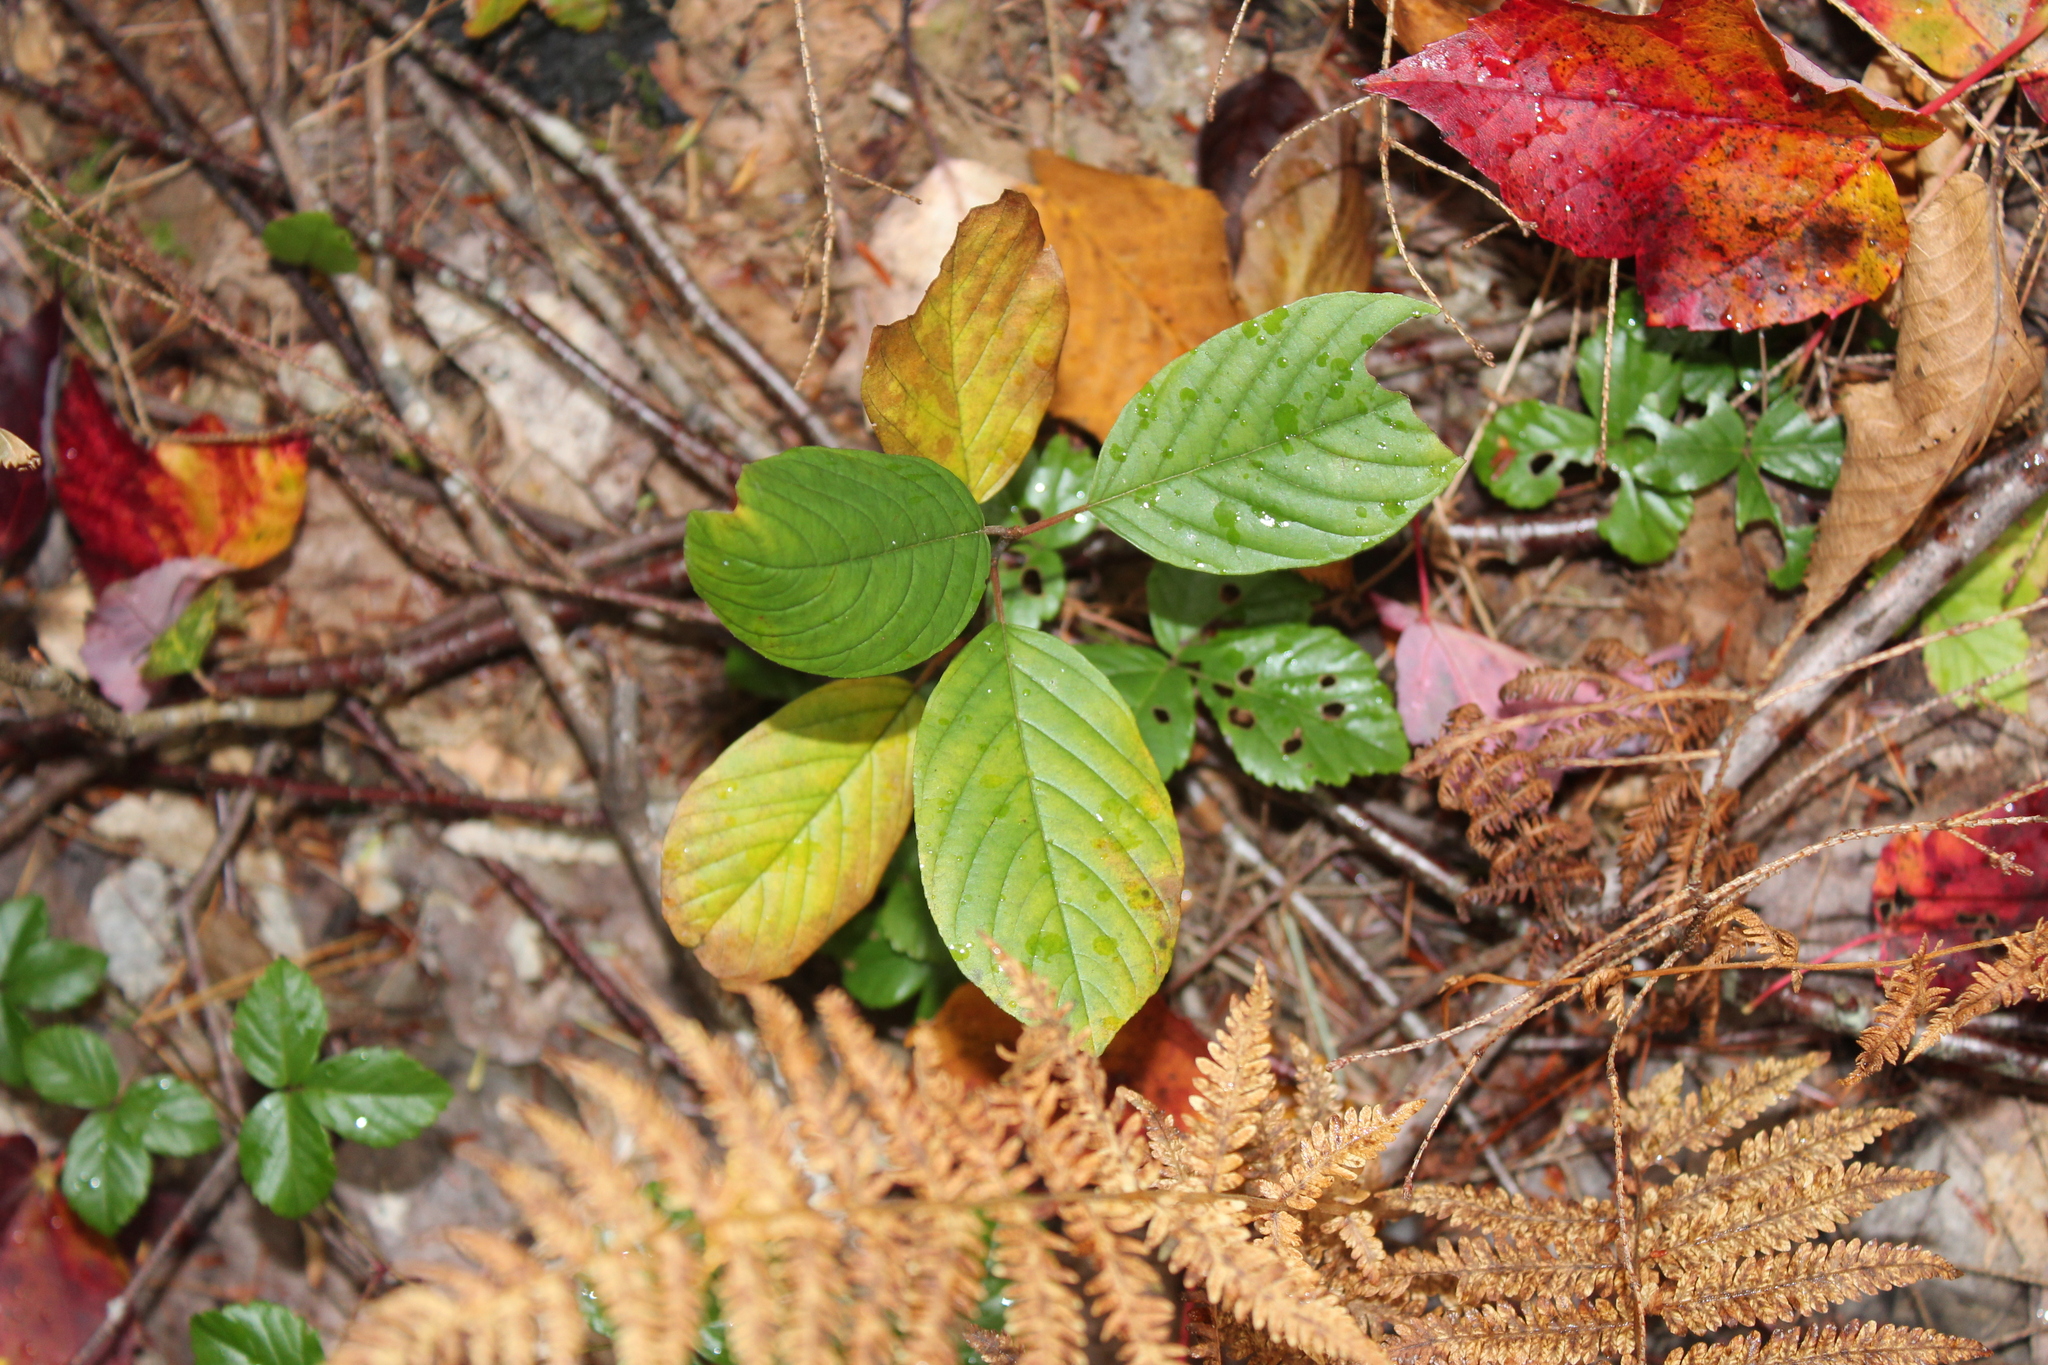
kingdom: Plantae
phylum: Tracheophyta
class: Magnoliopsida
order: Rosales
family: Rhamnaceae
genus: Frangula
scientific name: Frangula alnus
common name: Alder buckthorn
